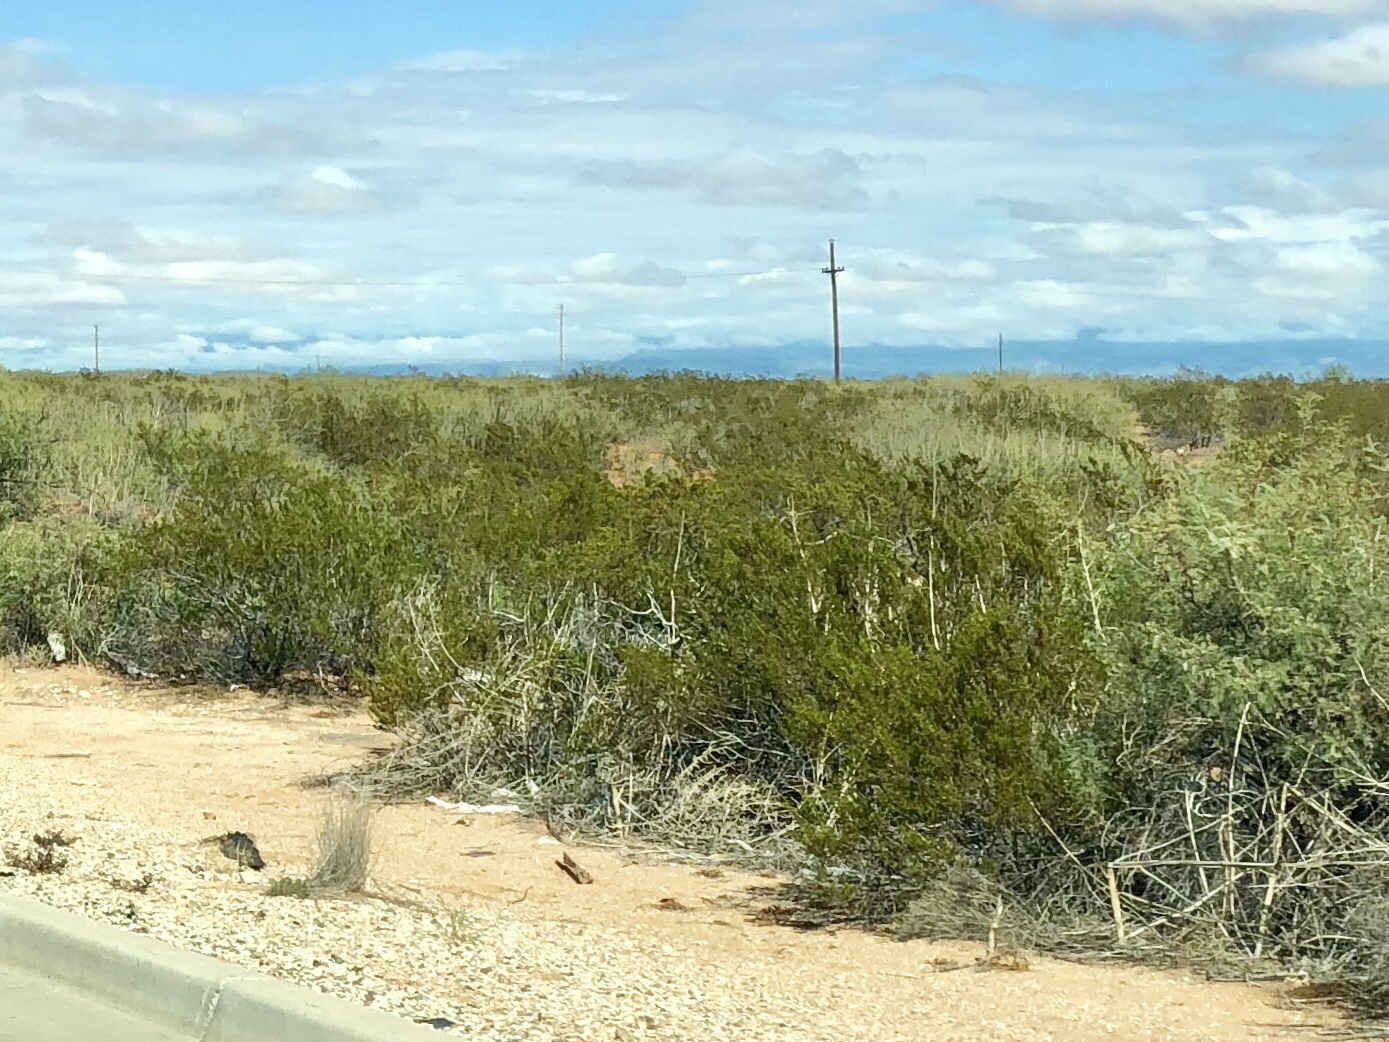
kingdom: Plantae
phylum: Tracheophyta
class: Magnoliopsida
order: Zygophyllales
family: Zygophyllaceae
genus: Larrea
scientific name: Larrea tridentata
